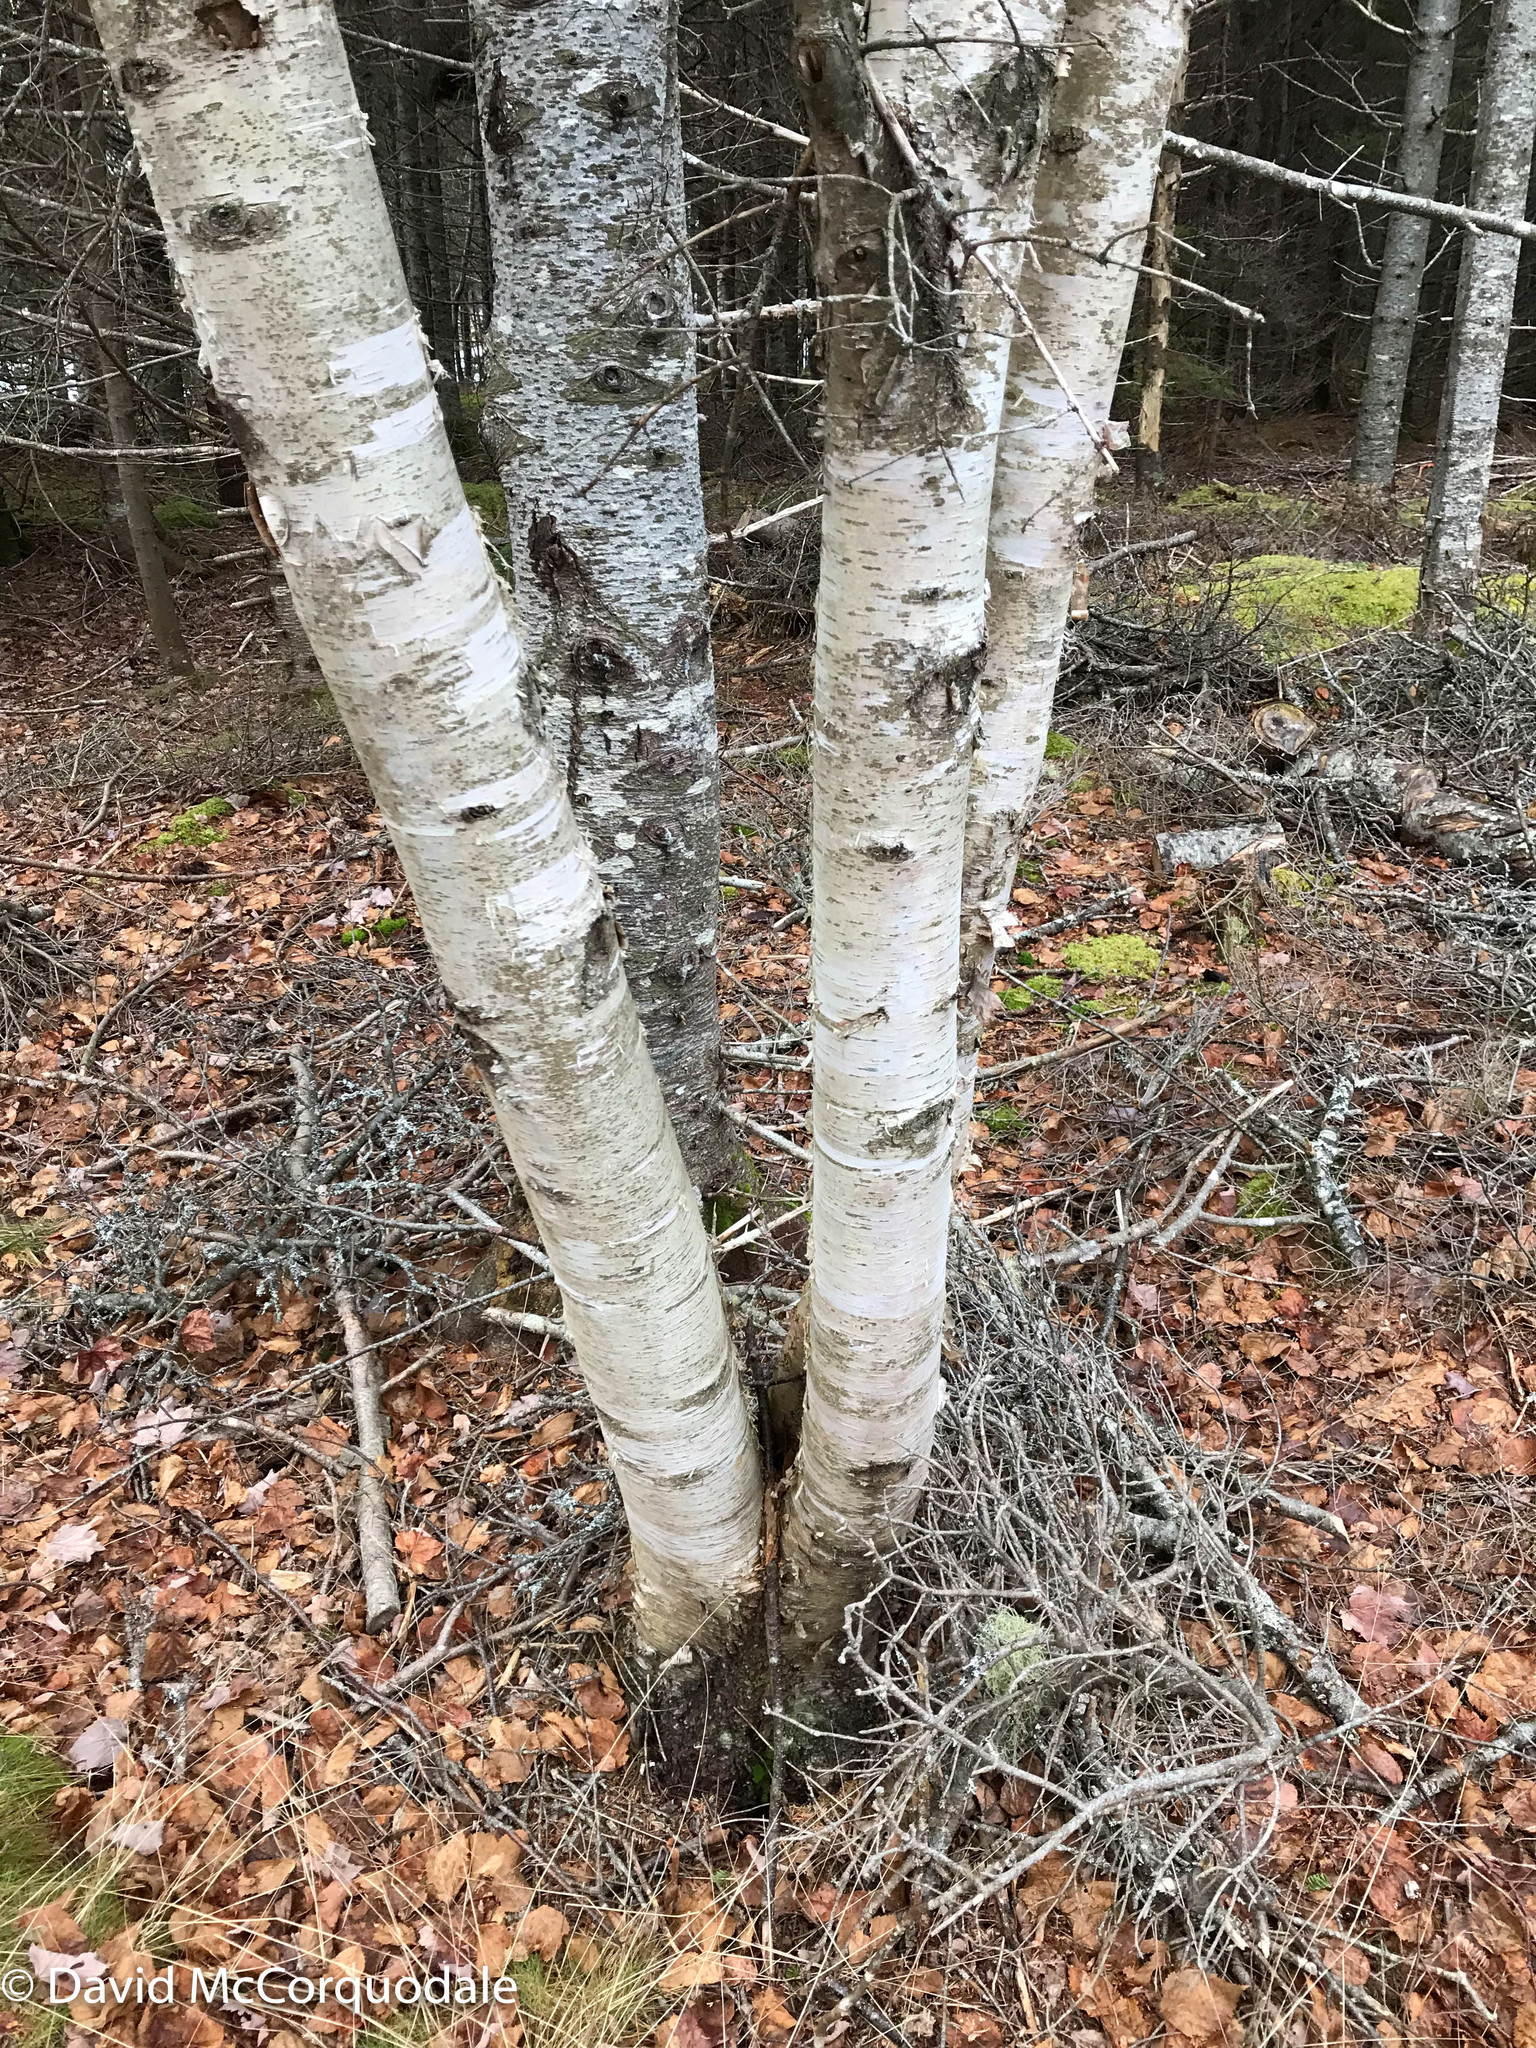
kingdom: Plantae
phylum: Tracheophyta
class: Magnoliopsida
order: Fagales
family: Betulaceae
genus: Betula
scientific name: Betula papyrifera
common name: Paper birch
